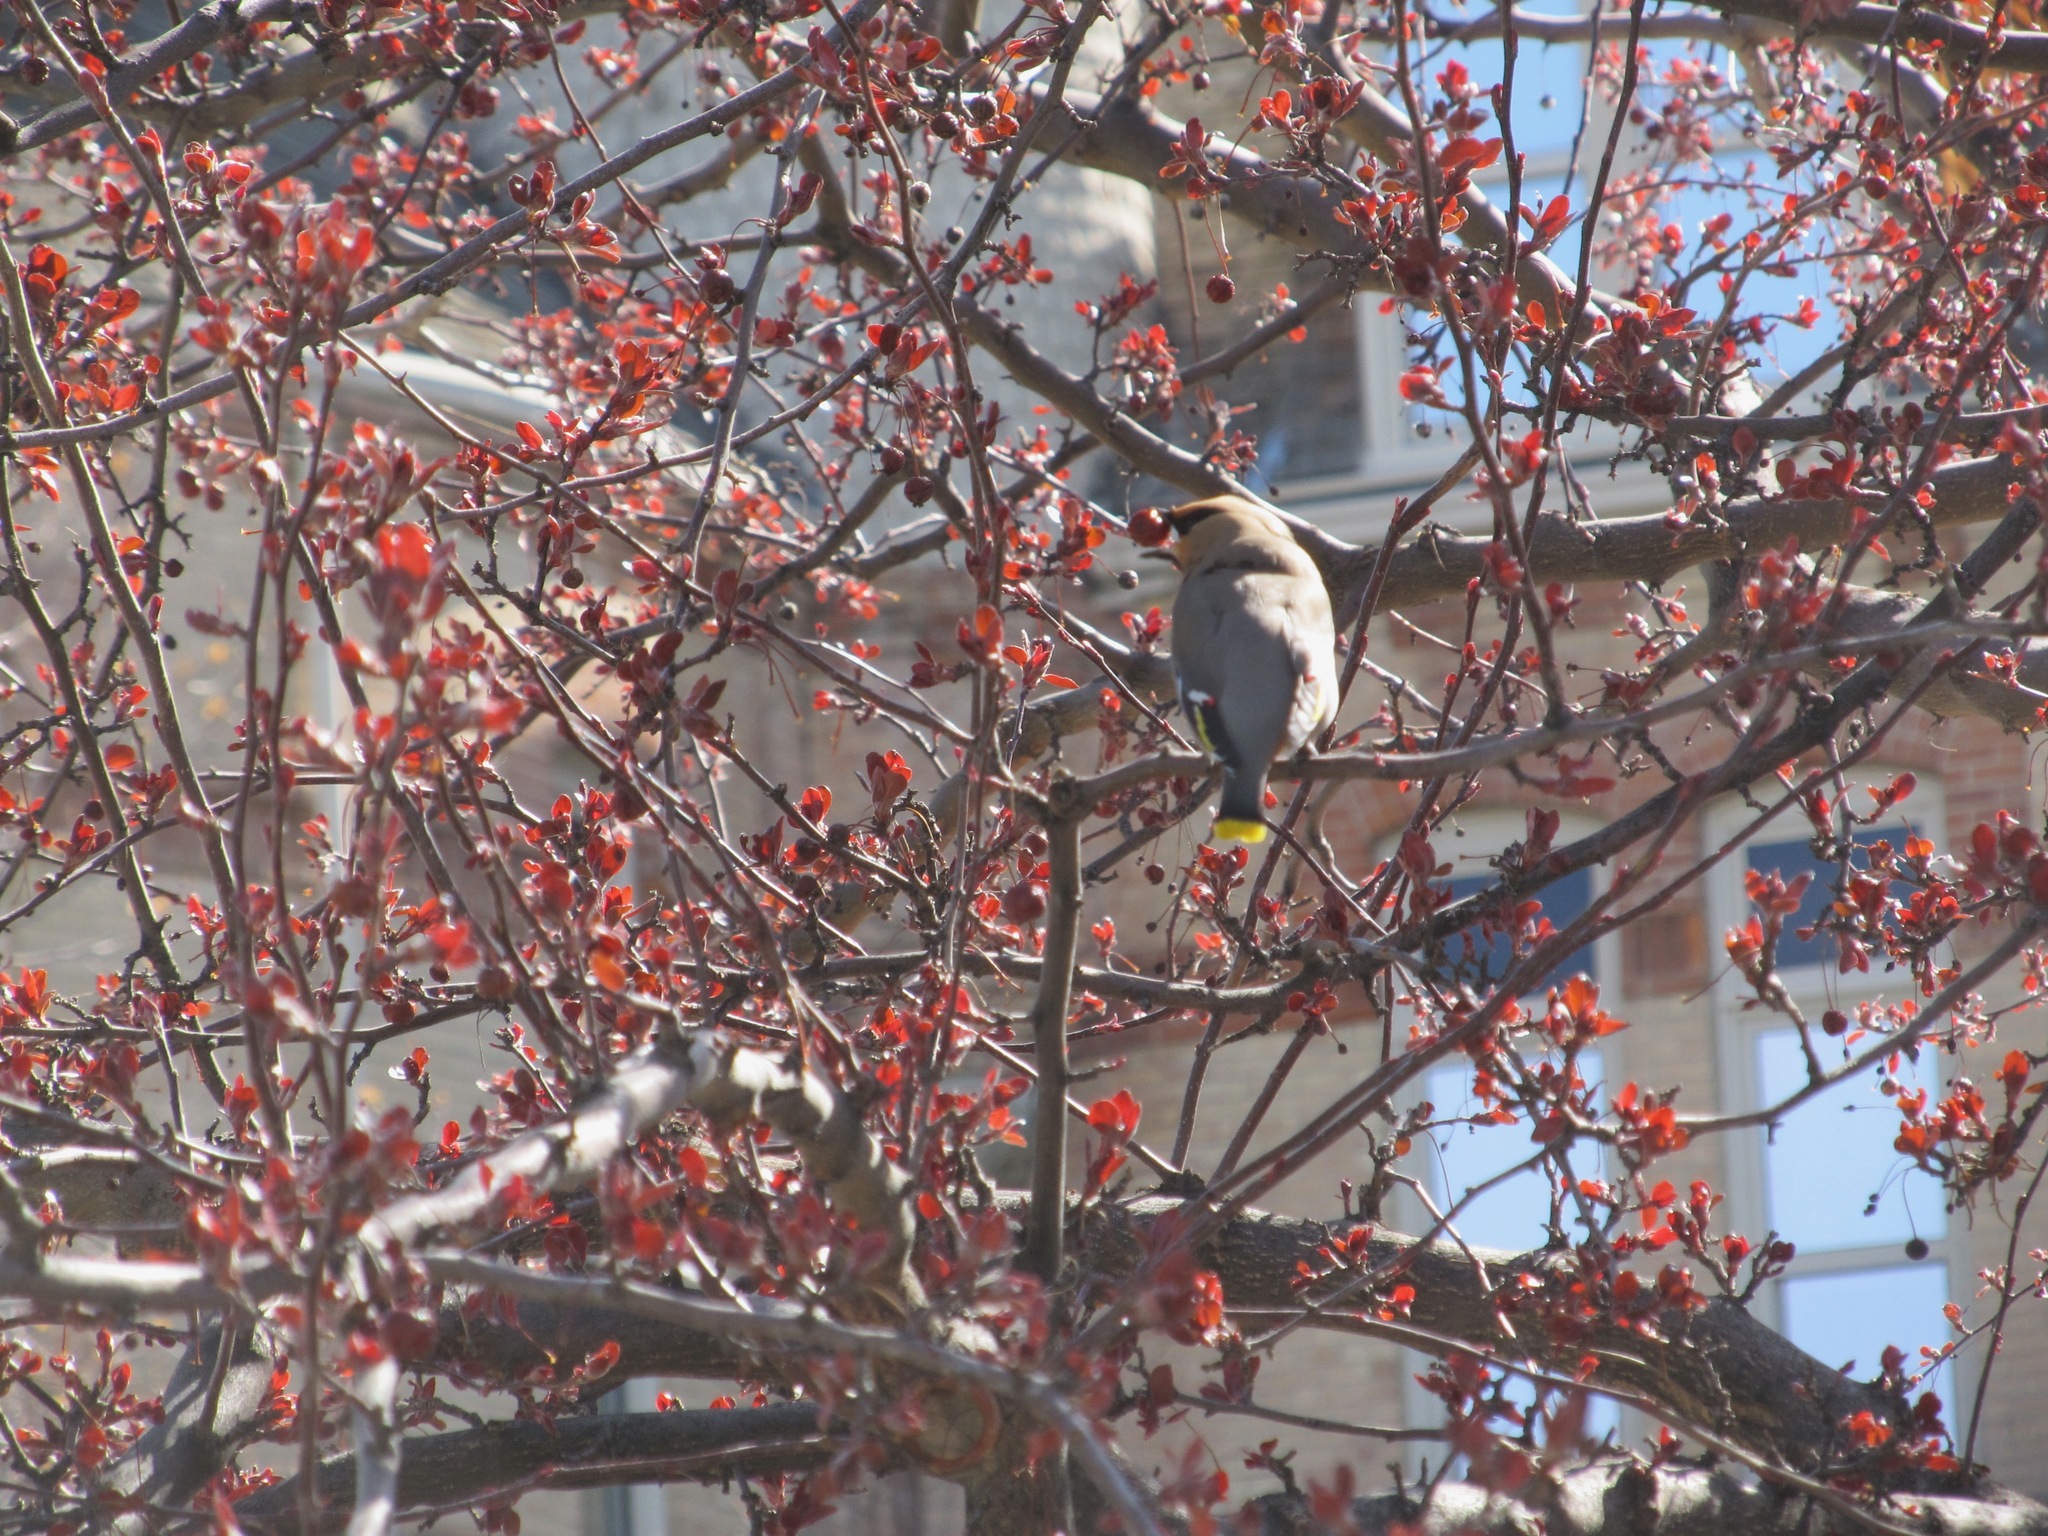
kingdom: Animalia
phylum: Chordata
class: Aves
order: Passeriformes
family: Bombycillidae
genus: Bombycilla
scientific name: Bombycilla garrulus
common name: Bohemian waxwing
